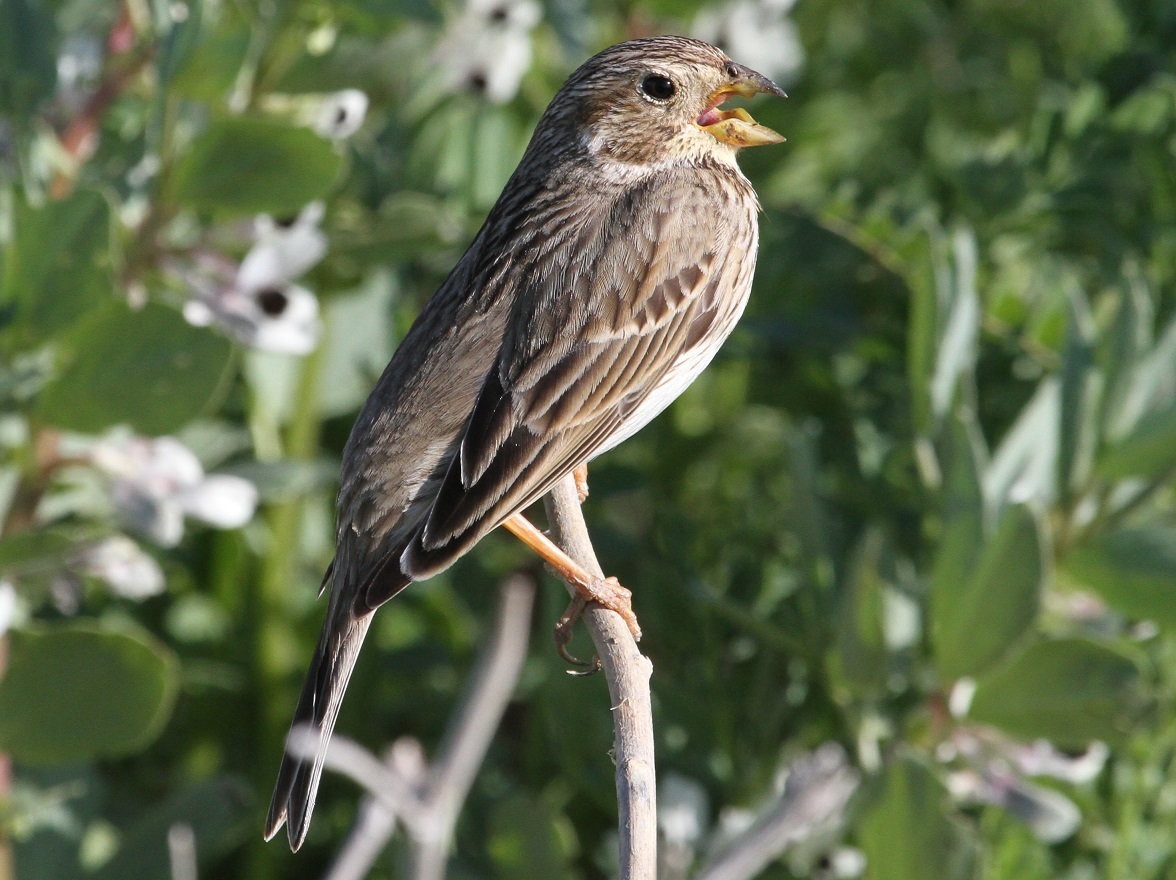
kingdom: Animalia
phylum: Chordata
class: Aves
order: Passeriformes
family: Emberizidae
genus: Emberiza
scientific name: Emberiza calandra
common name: Corn bunting
